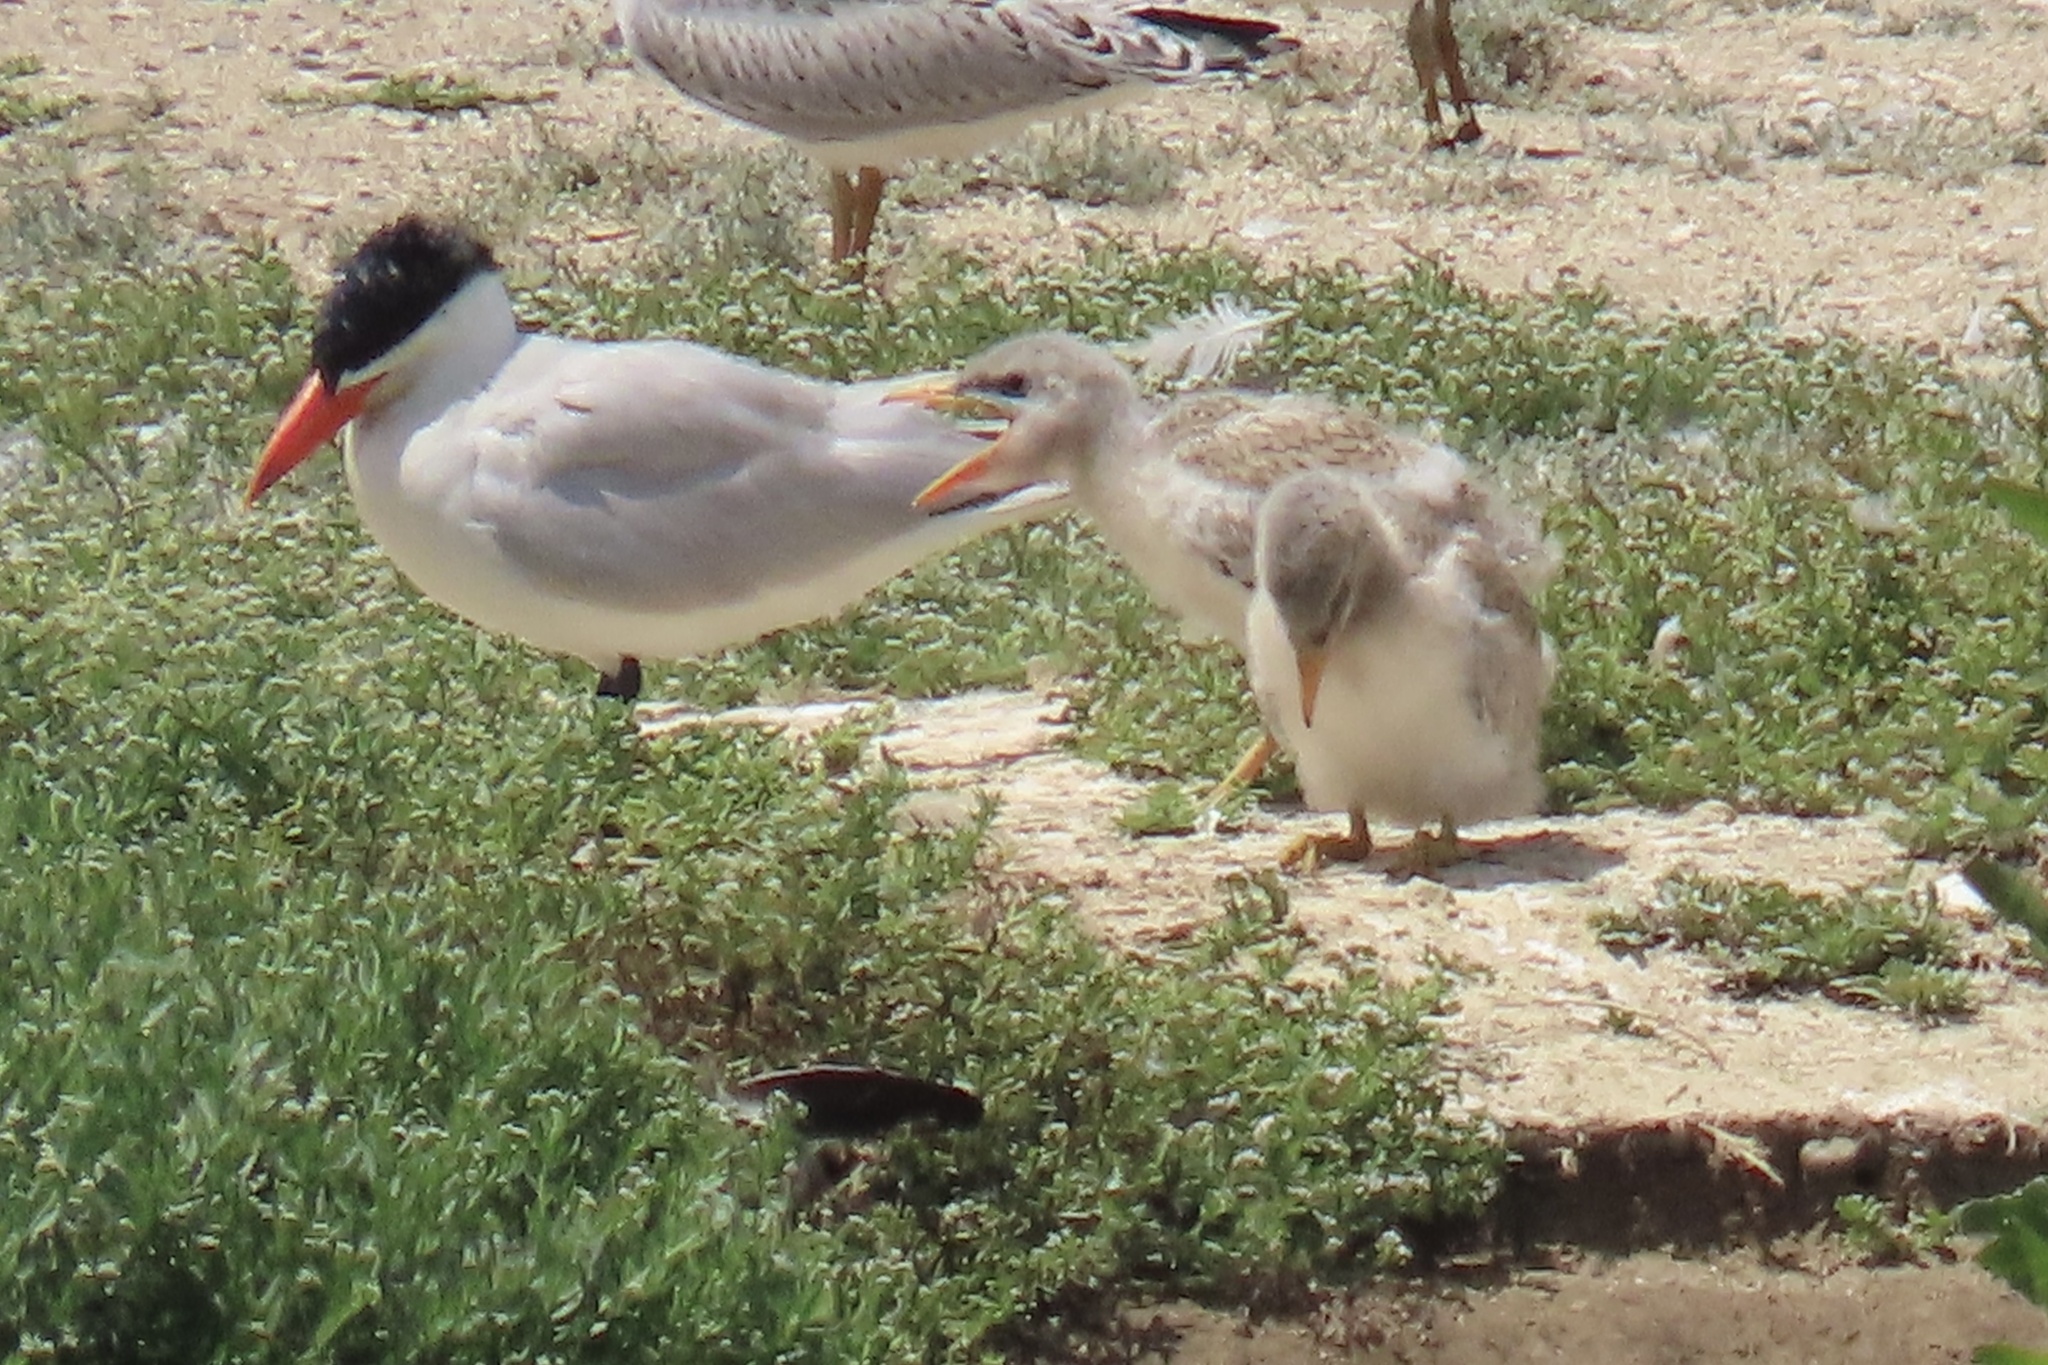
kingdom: Animalia
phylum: Chordata
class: Aves
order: Charadriiformes
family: Laridae
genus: Hydroprogne
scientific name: Hydroprogne caspia
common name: Caspian tern
